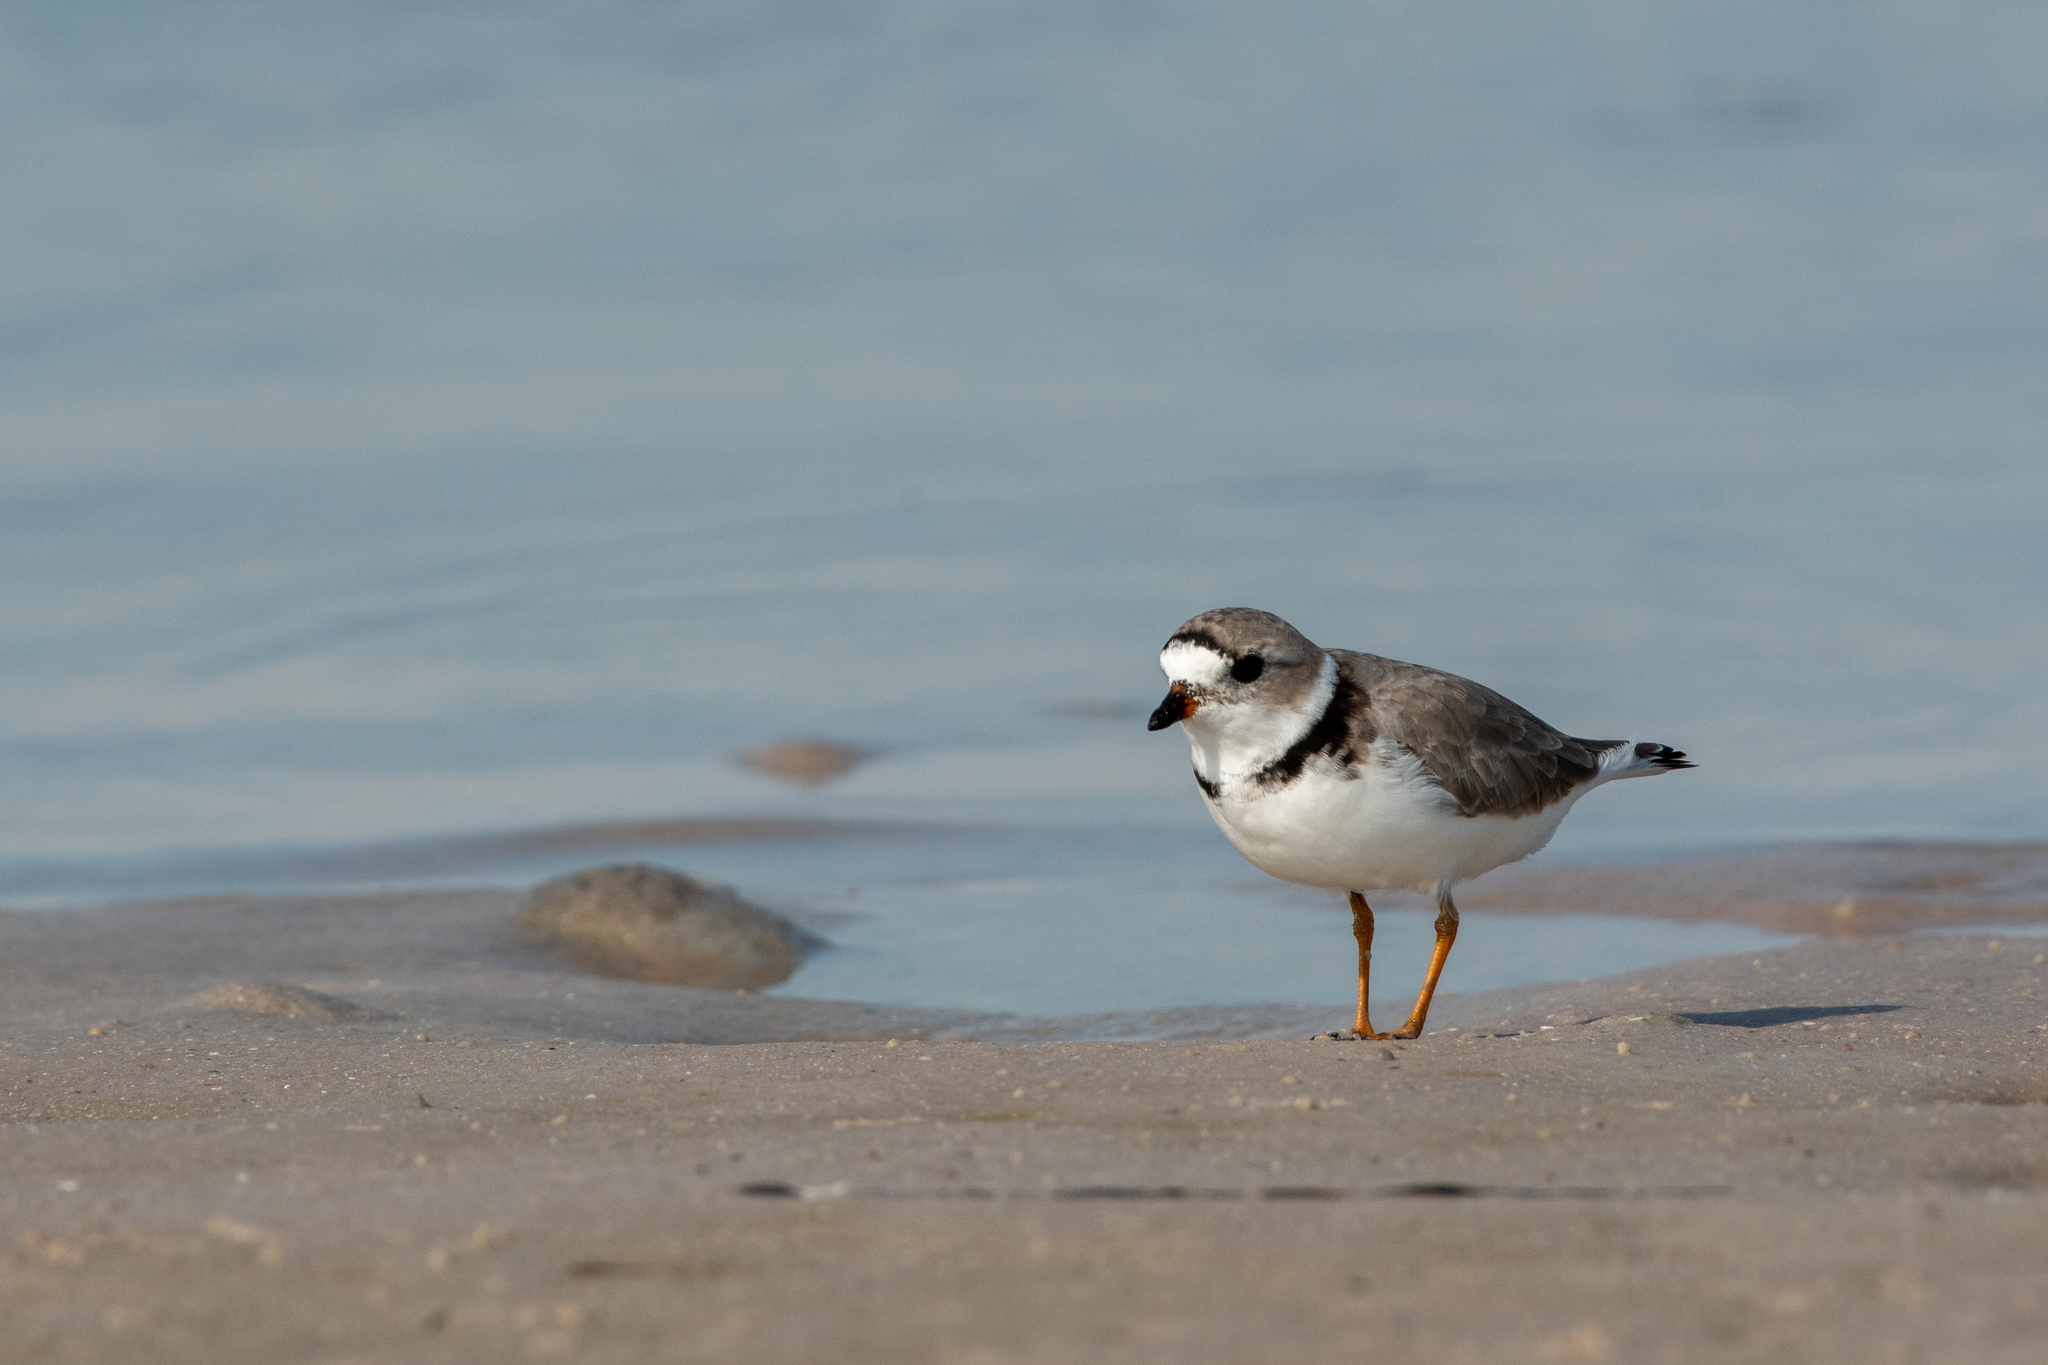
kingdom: Animalia
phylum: Chordata
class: Aves
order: Charadriiformes
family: Charadriidae
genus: Charadrius
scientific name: Charadrius melodus
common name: Piping plover
